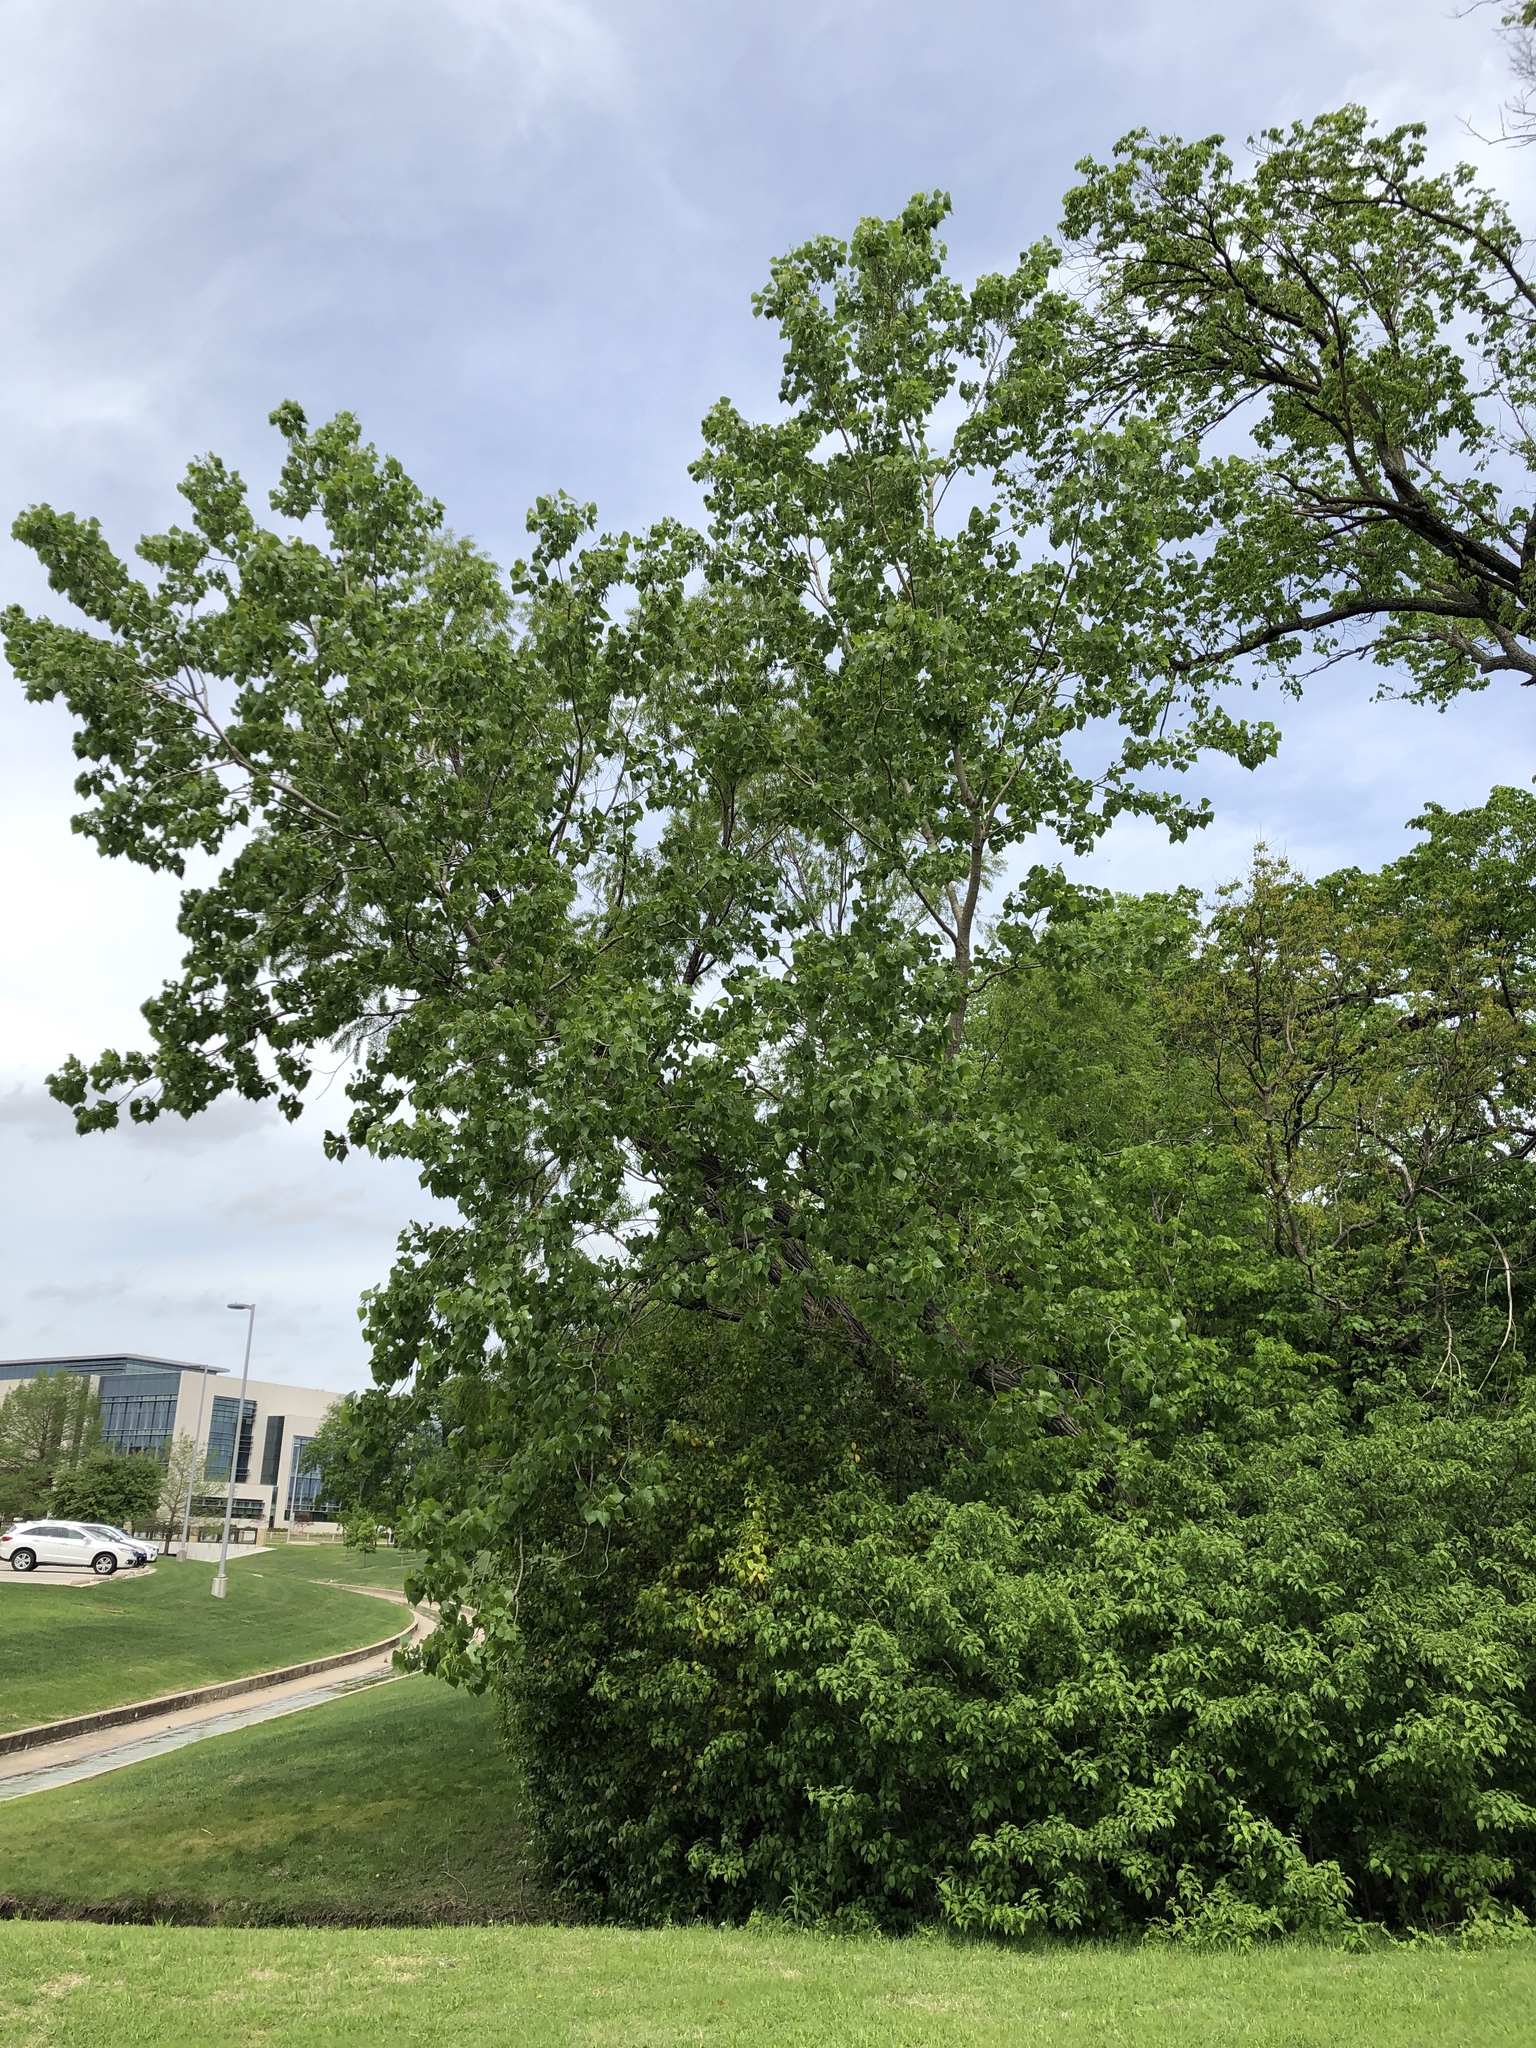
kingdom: Plantae
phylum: Tracheophyta
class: Magnoliopsida
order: Malpighiales
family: Salicaceae
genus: Populus
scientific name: Populus deltoides
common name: Eastern cottonwood
